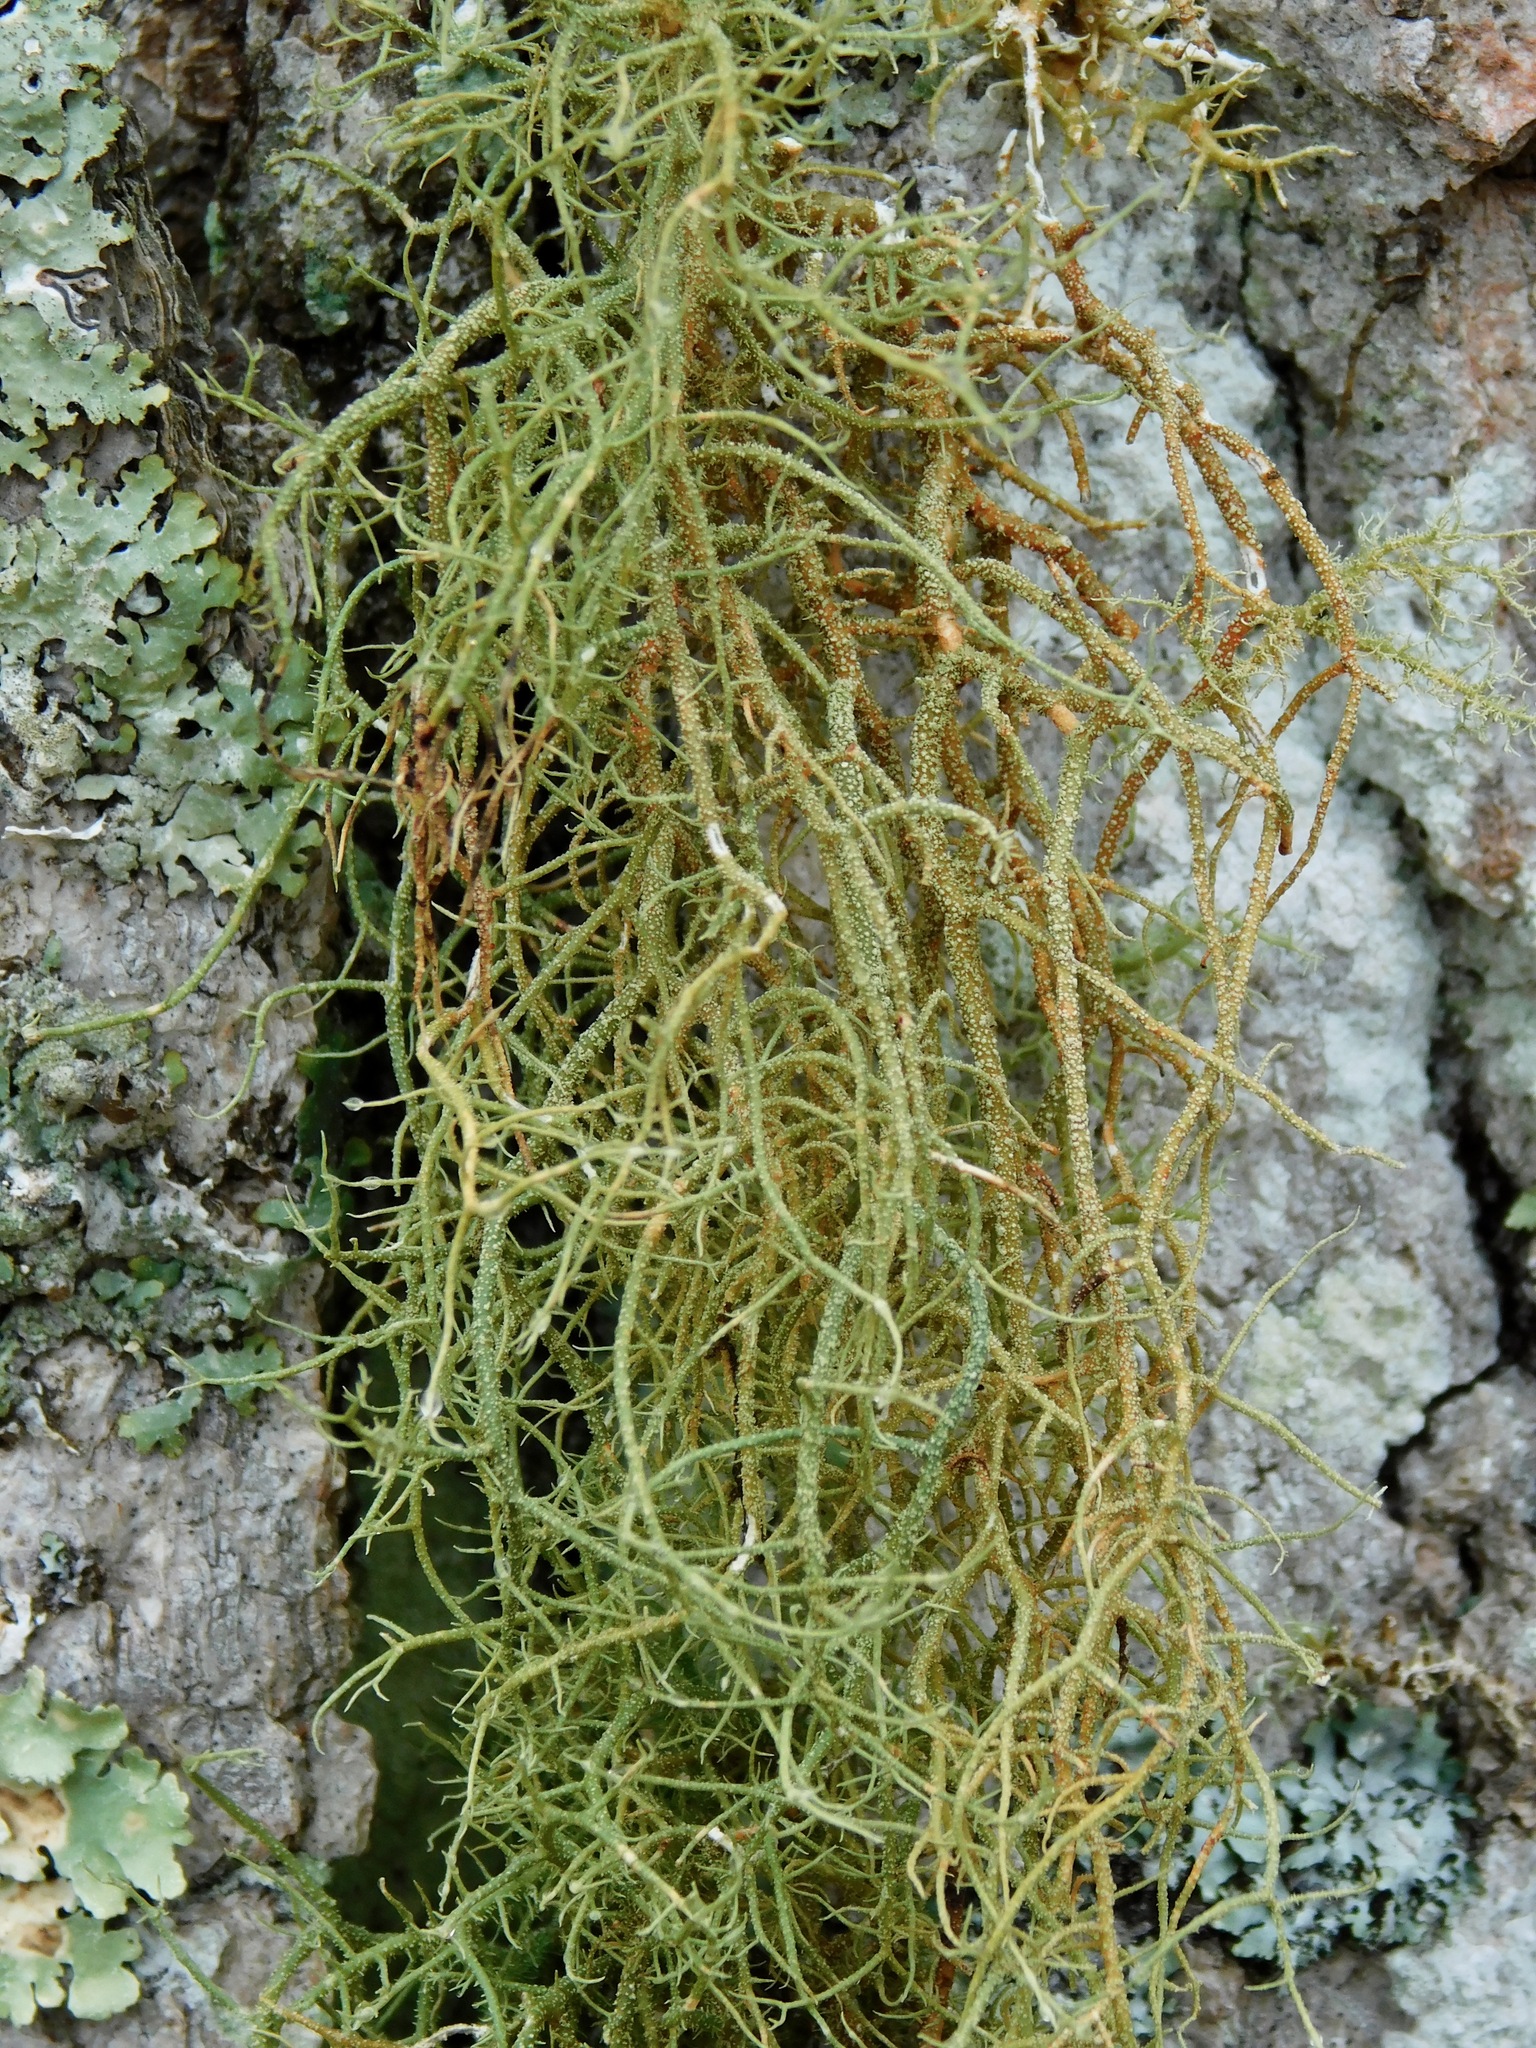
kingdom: Fungi
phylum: Ascomycota
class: Lecanoromycetes
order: Lecanorales
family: Parmeliaceae
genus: Usnea
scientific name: Usnea rubicunda
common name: Red beard lichen
